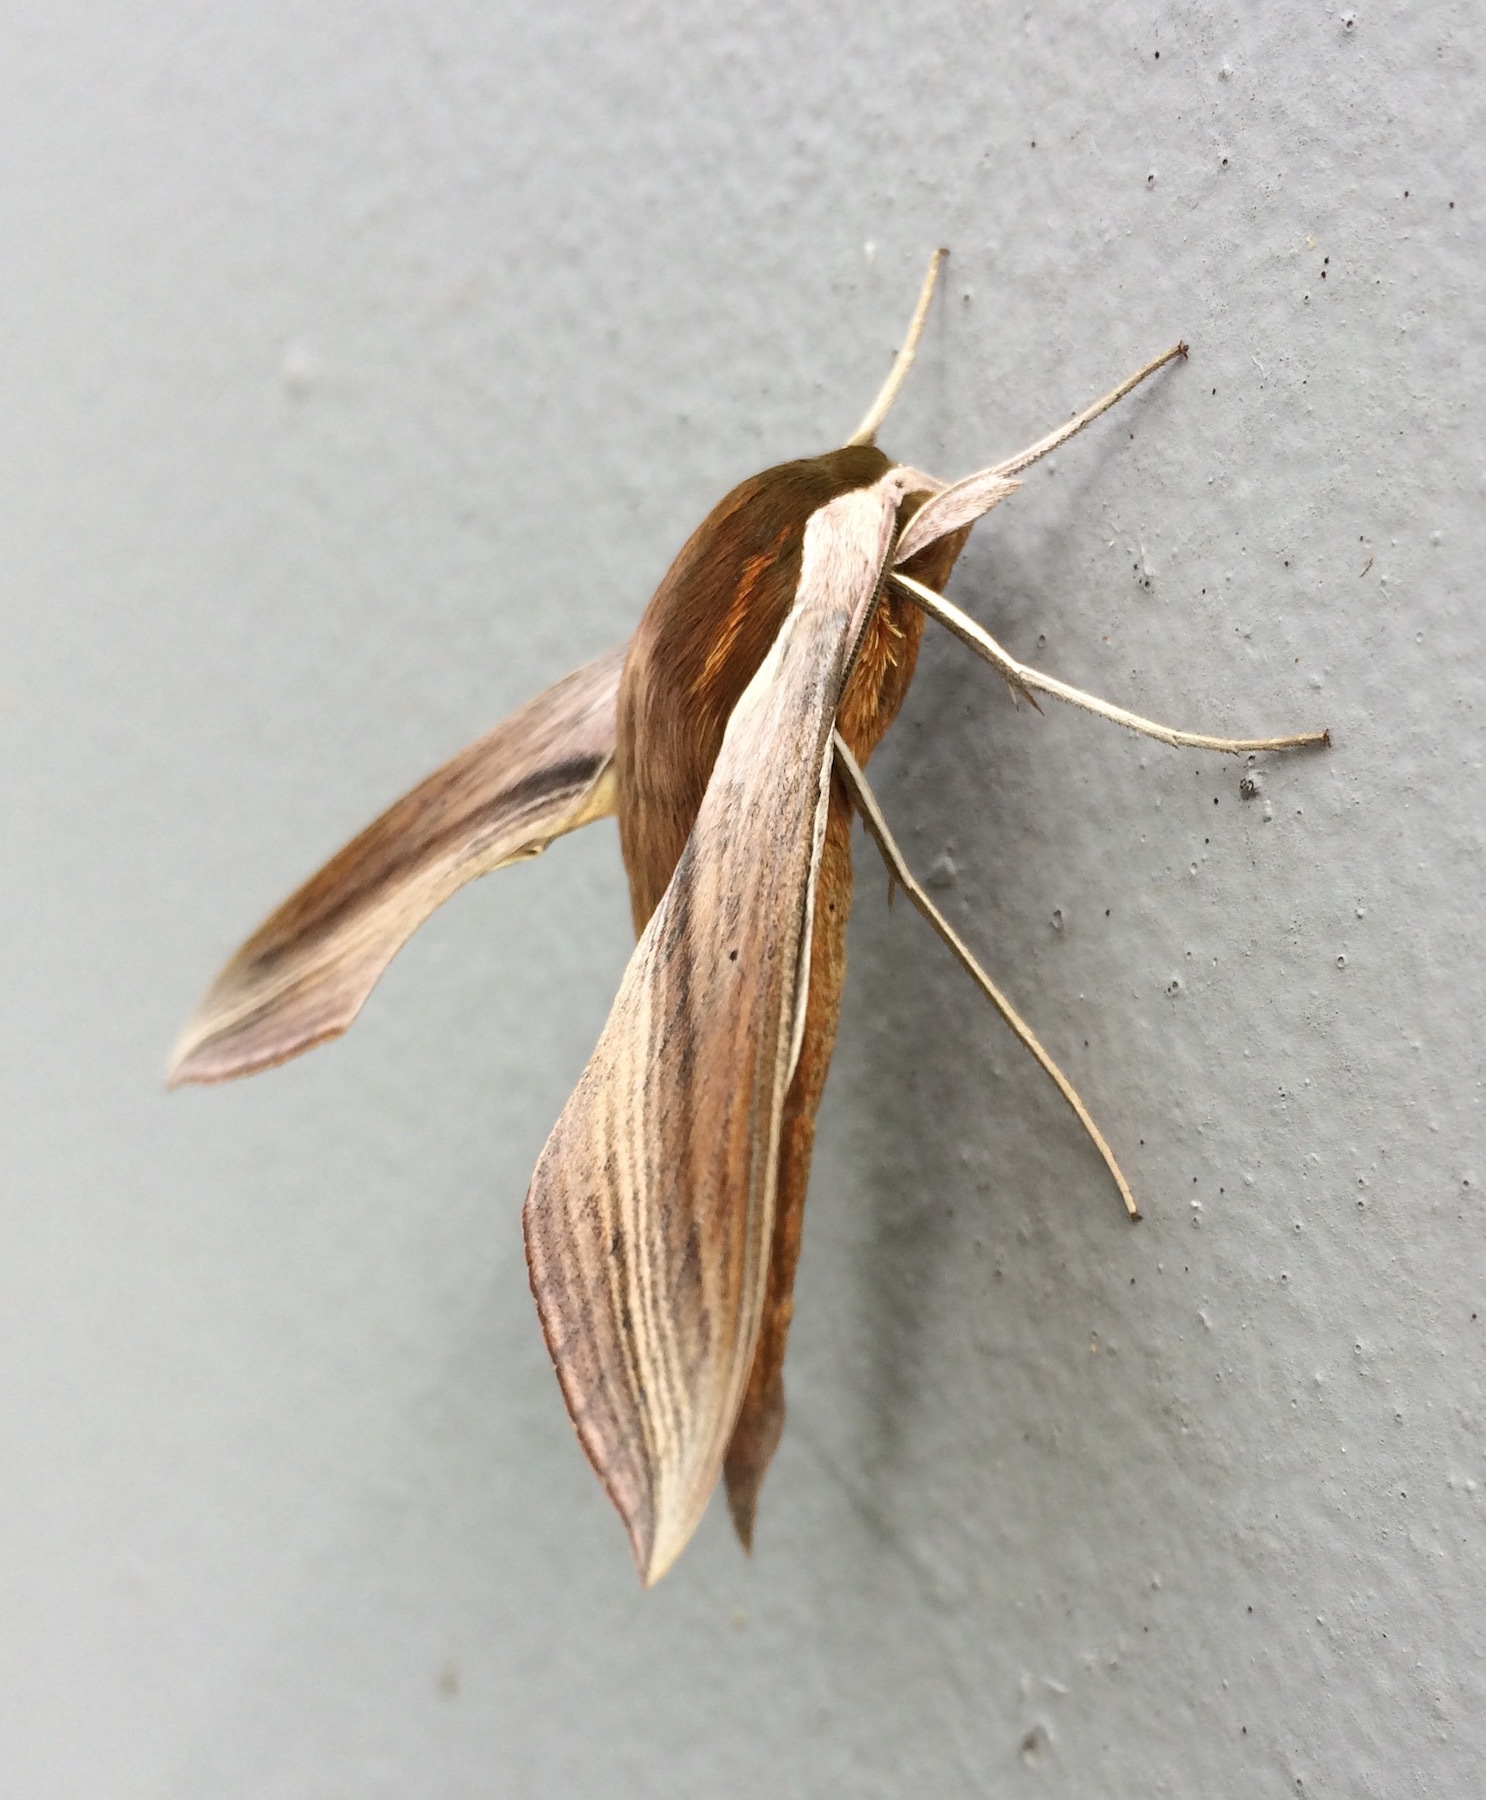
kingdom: Animalia
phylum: Arthropoda
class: Insecta
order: Lepidoptera
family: Sphingidae
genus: Xylophanes
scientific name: Xylophanes tersa
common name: Tersa sphinx
